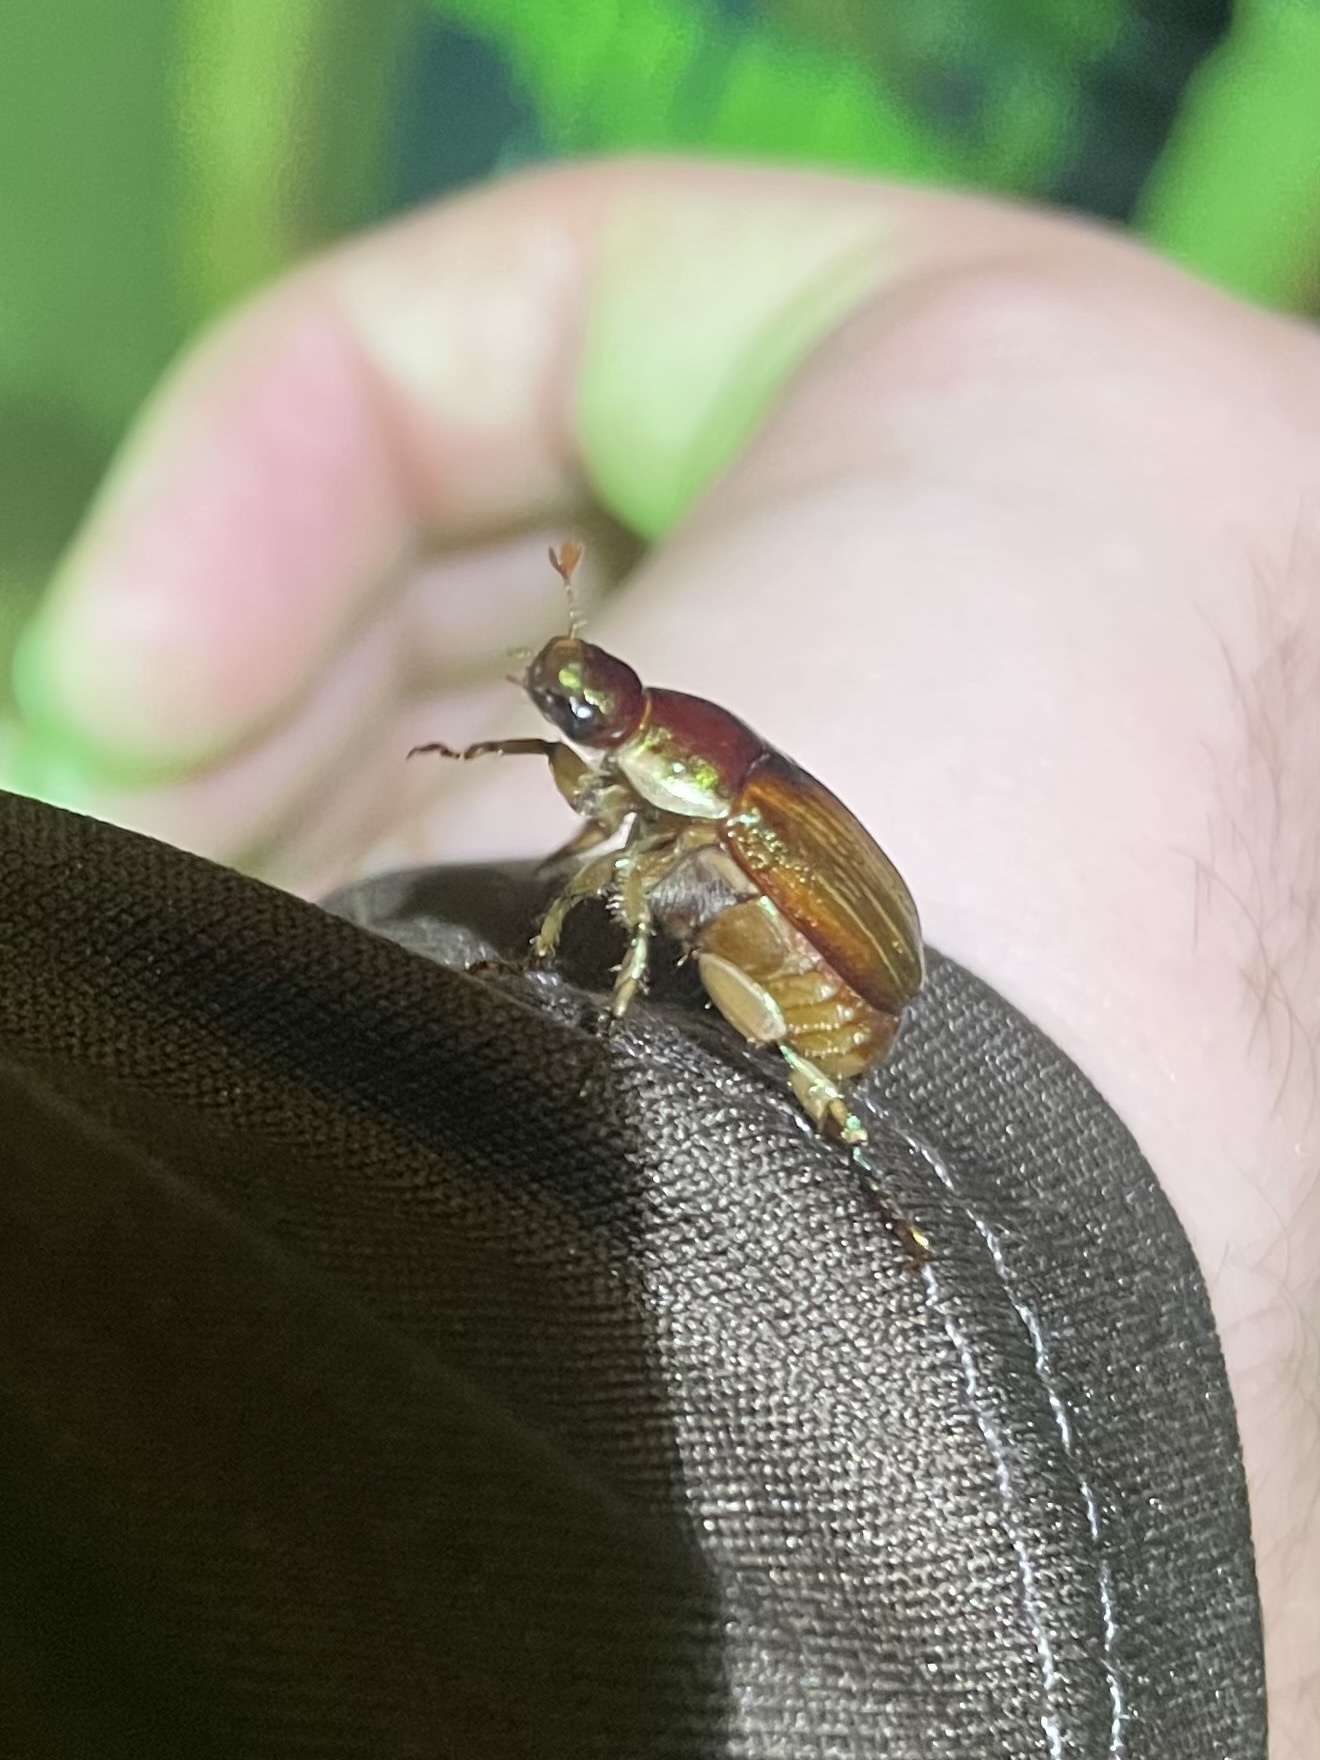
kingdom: Animalia
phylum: Arthropoda
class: Insecta
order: Coleoptera
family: Scarabaeidae
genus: Callistethus
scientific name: Callistethus marginatus
